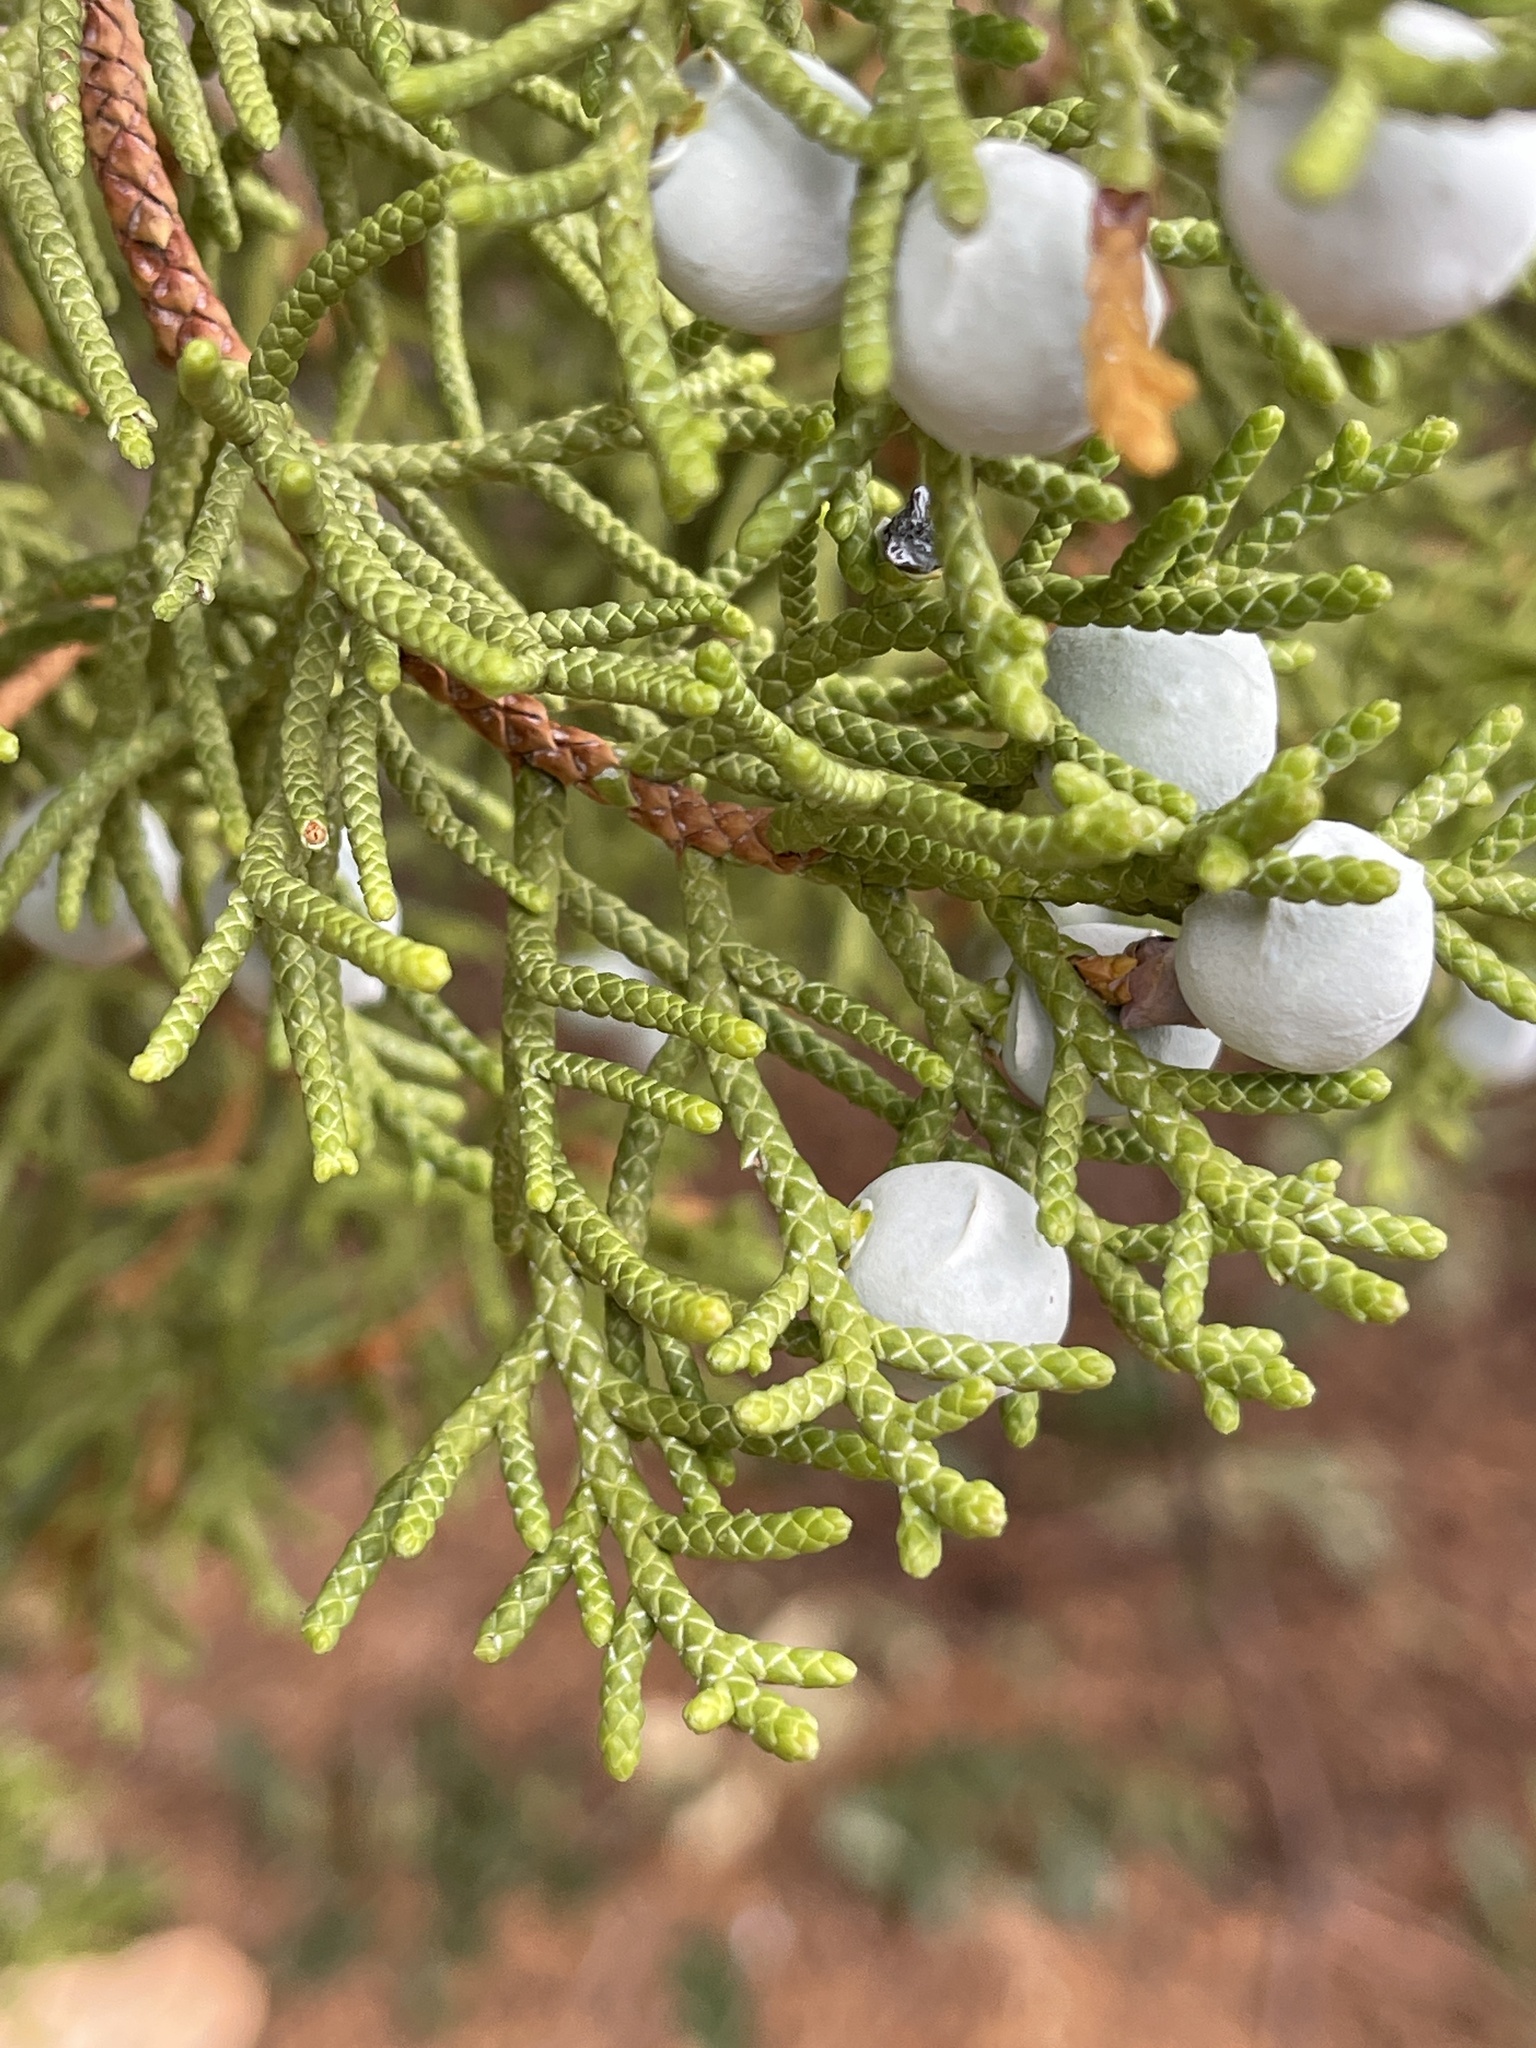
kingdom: Plantae
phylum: Tracheophyta
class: Pinopsida
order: Pinales
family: Cupressaceae
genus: Juniperus
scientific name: Juniperus osteosperma
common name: Utah juniper
